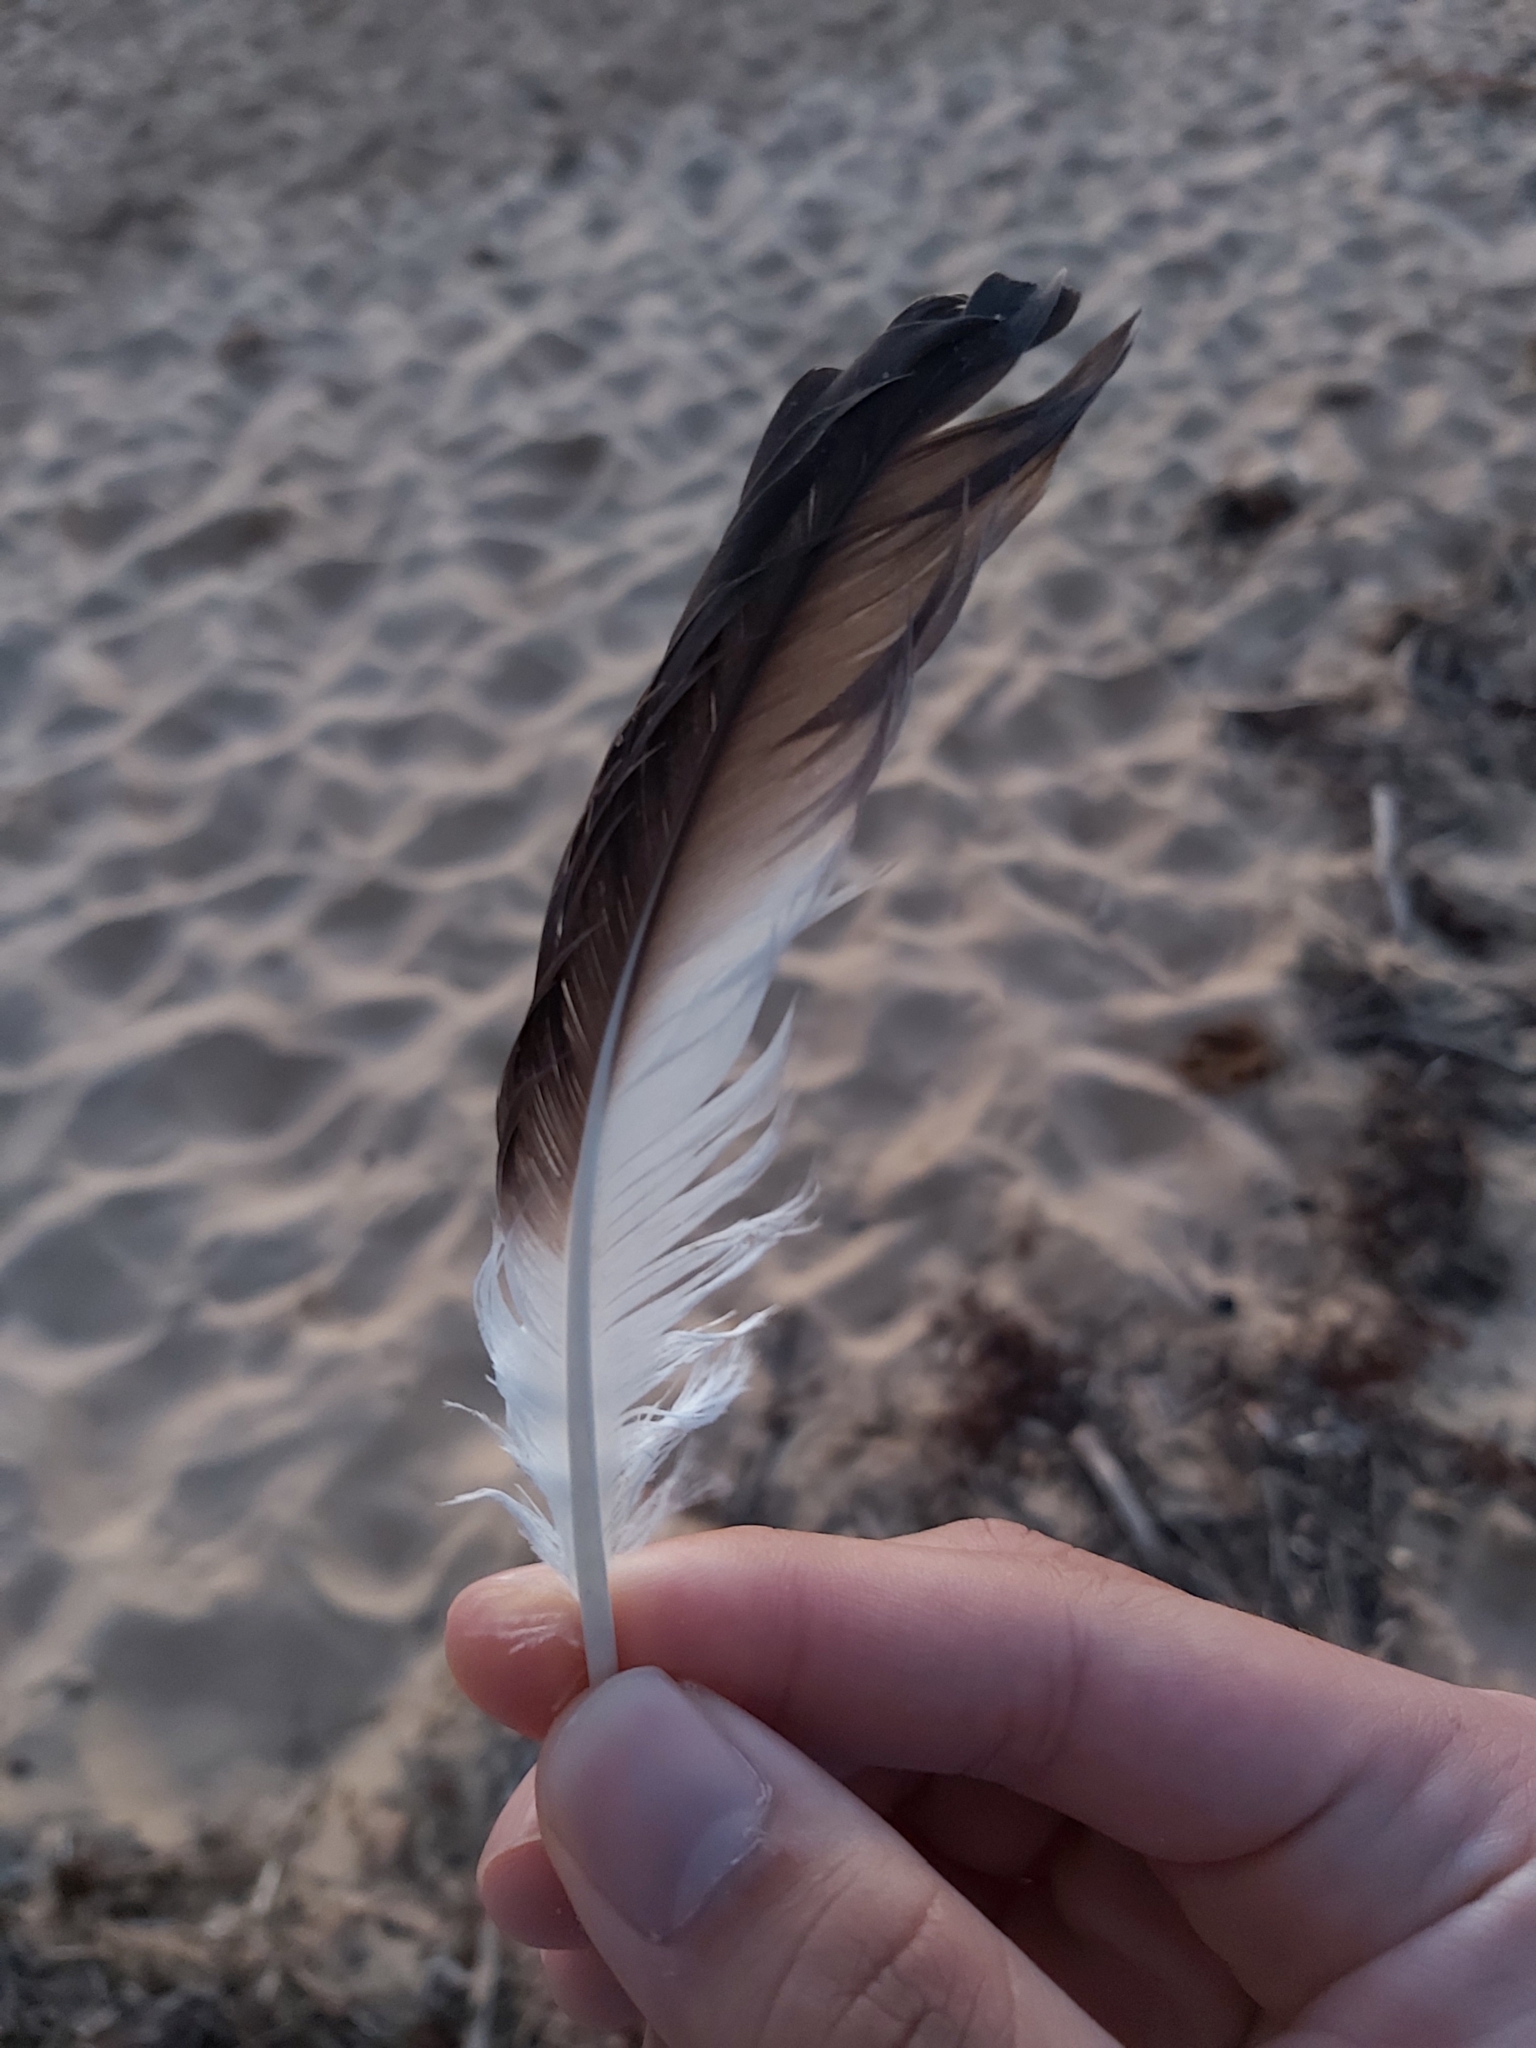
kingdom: Animalia
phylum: Chordata
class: Aves
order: Suliformes
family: Sulidae
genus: Morus
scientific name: Morus serrator
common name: Australasian gannet
